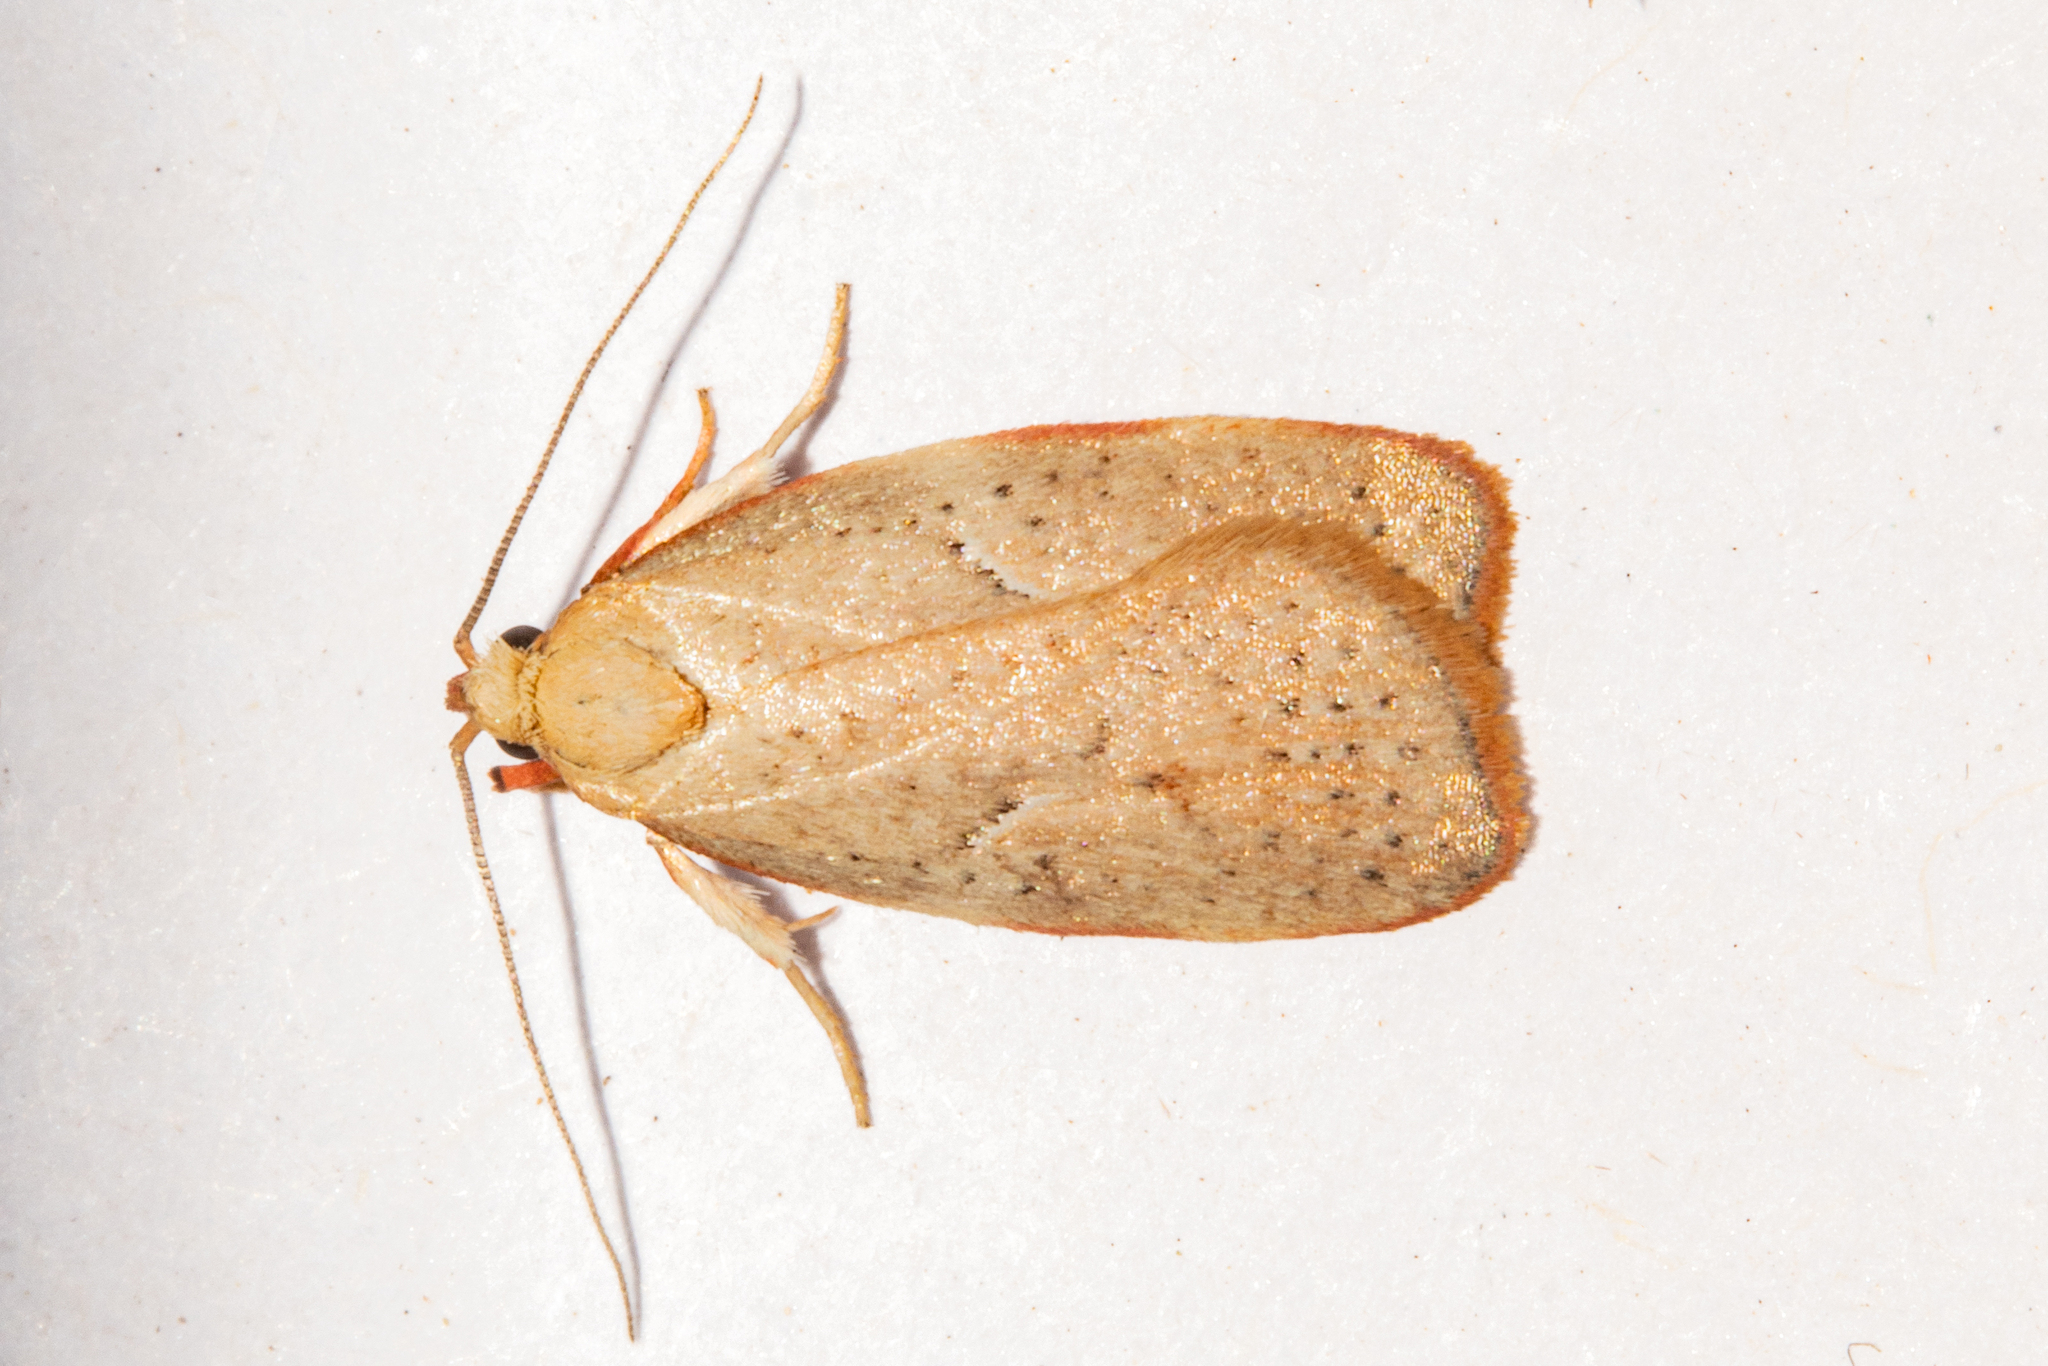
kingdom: Animalia
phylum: Arthropoda
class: Insecta
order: Lepidoptera
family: Oecophoridae
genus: Proteodes
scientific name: Proteodes carnifex
